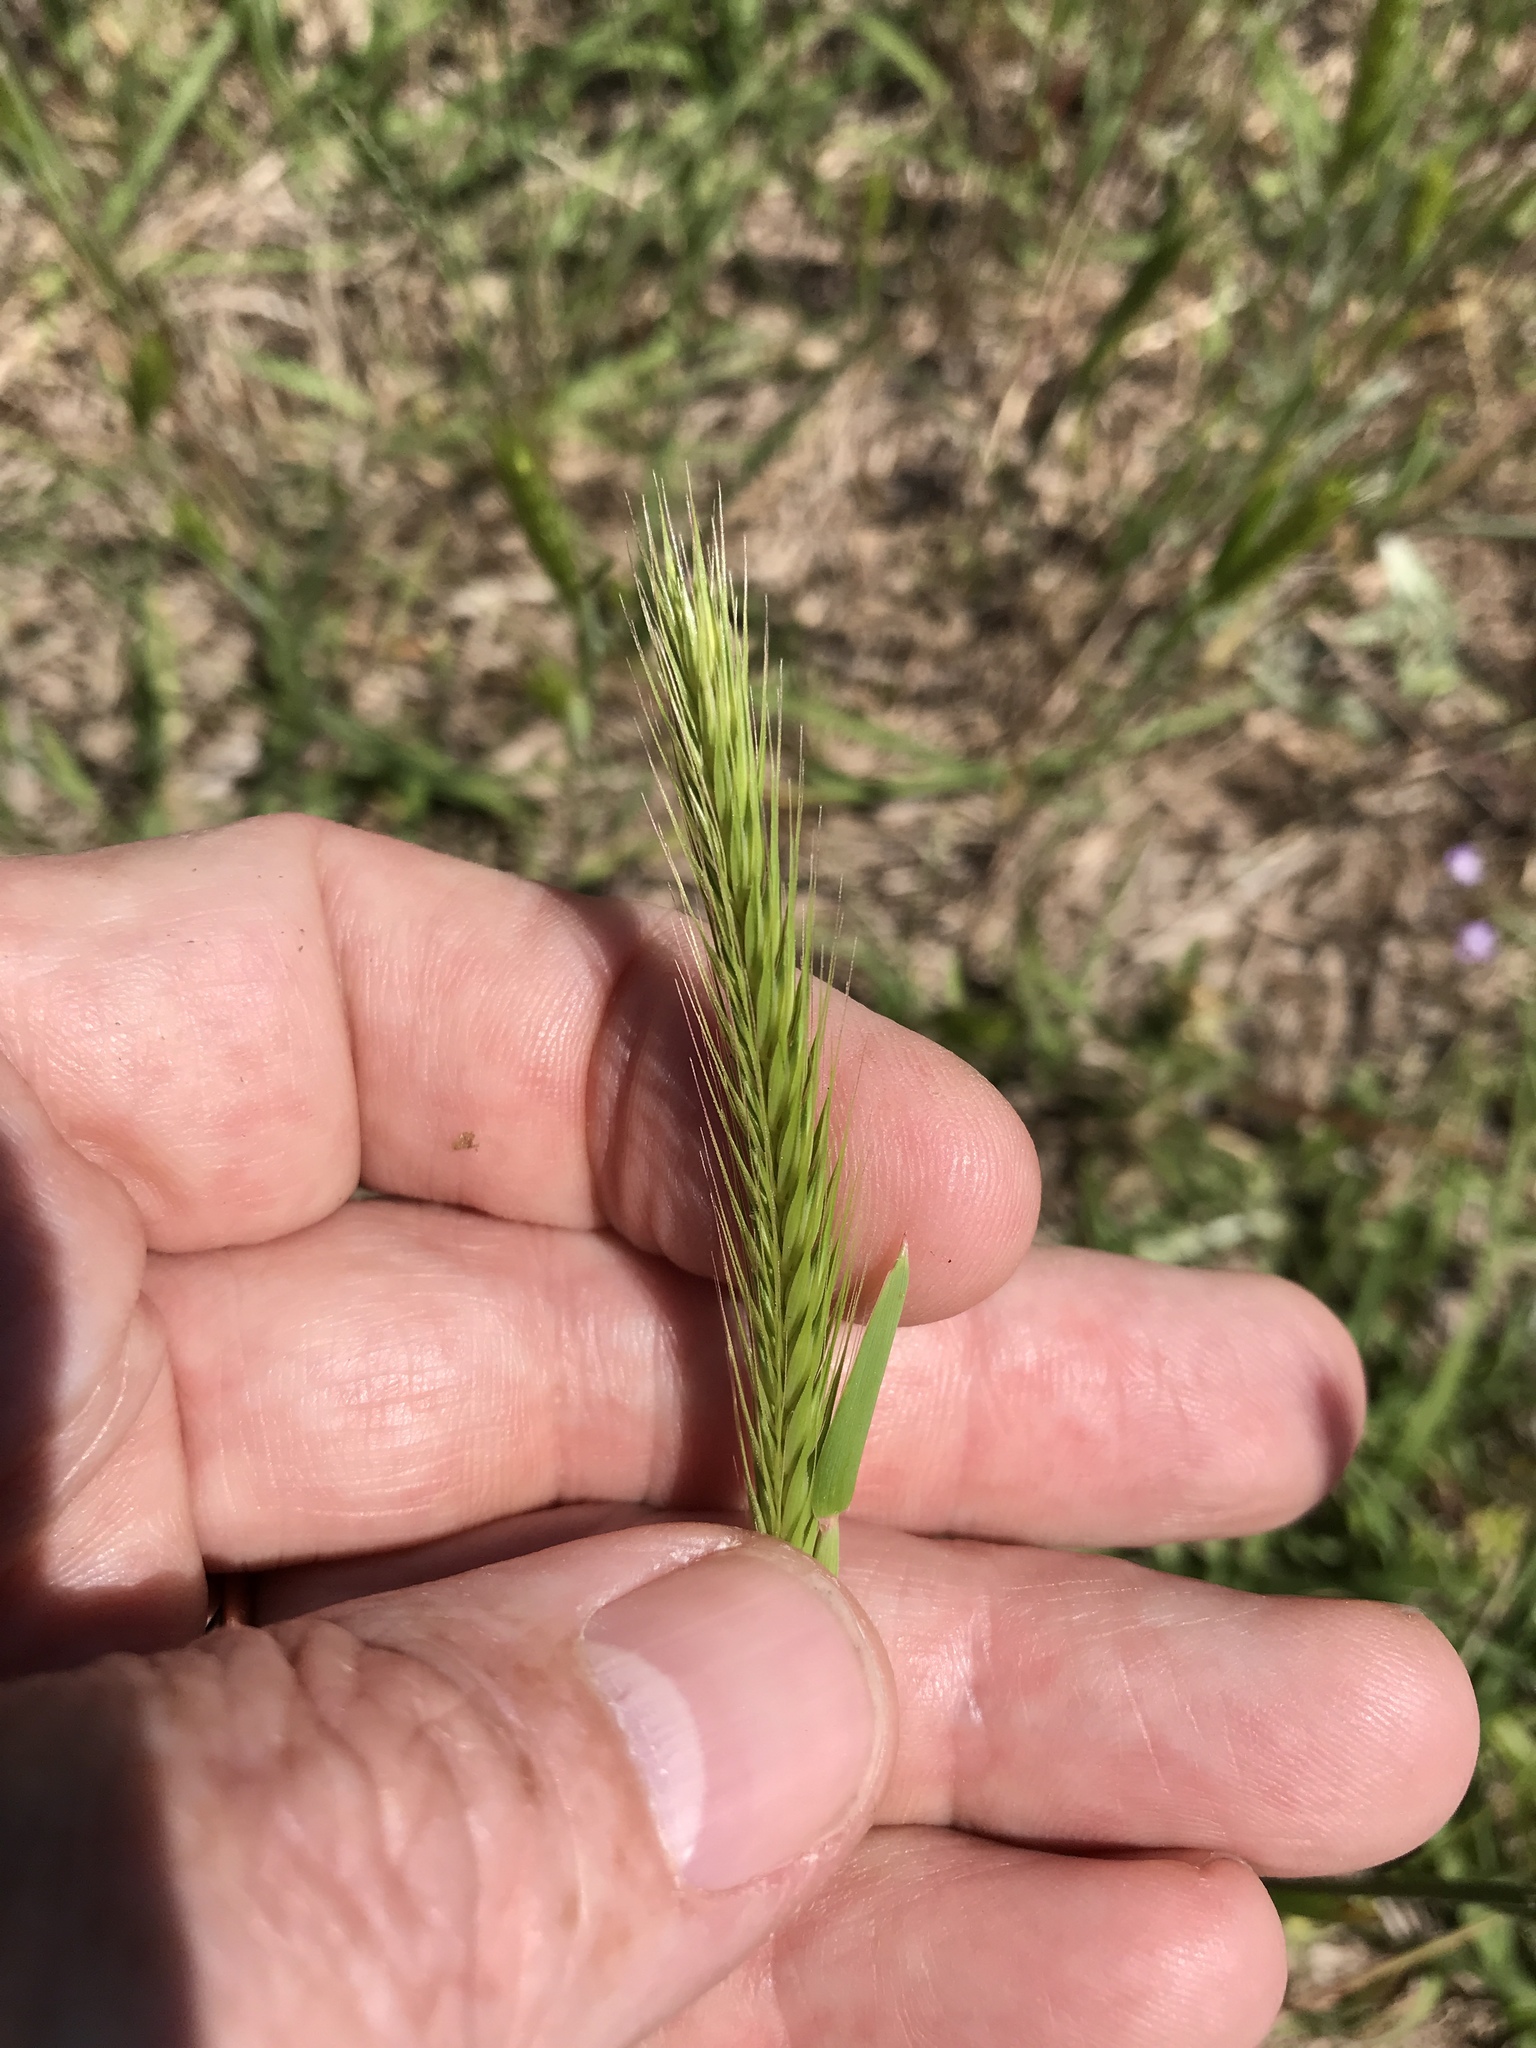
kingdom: Plantae
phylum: Tracheophyta
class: Liliopsida
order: Poales
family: Poaceae
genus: Hordeum
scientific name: Hordeum pusillum
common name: Little barley
